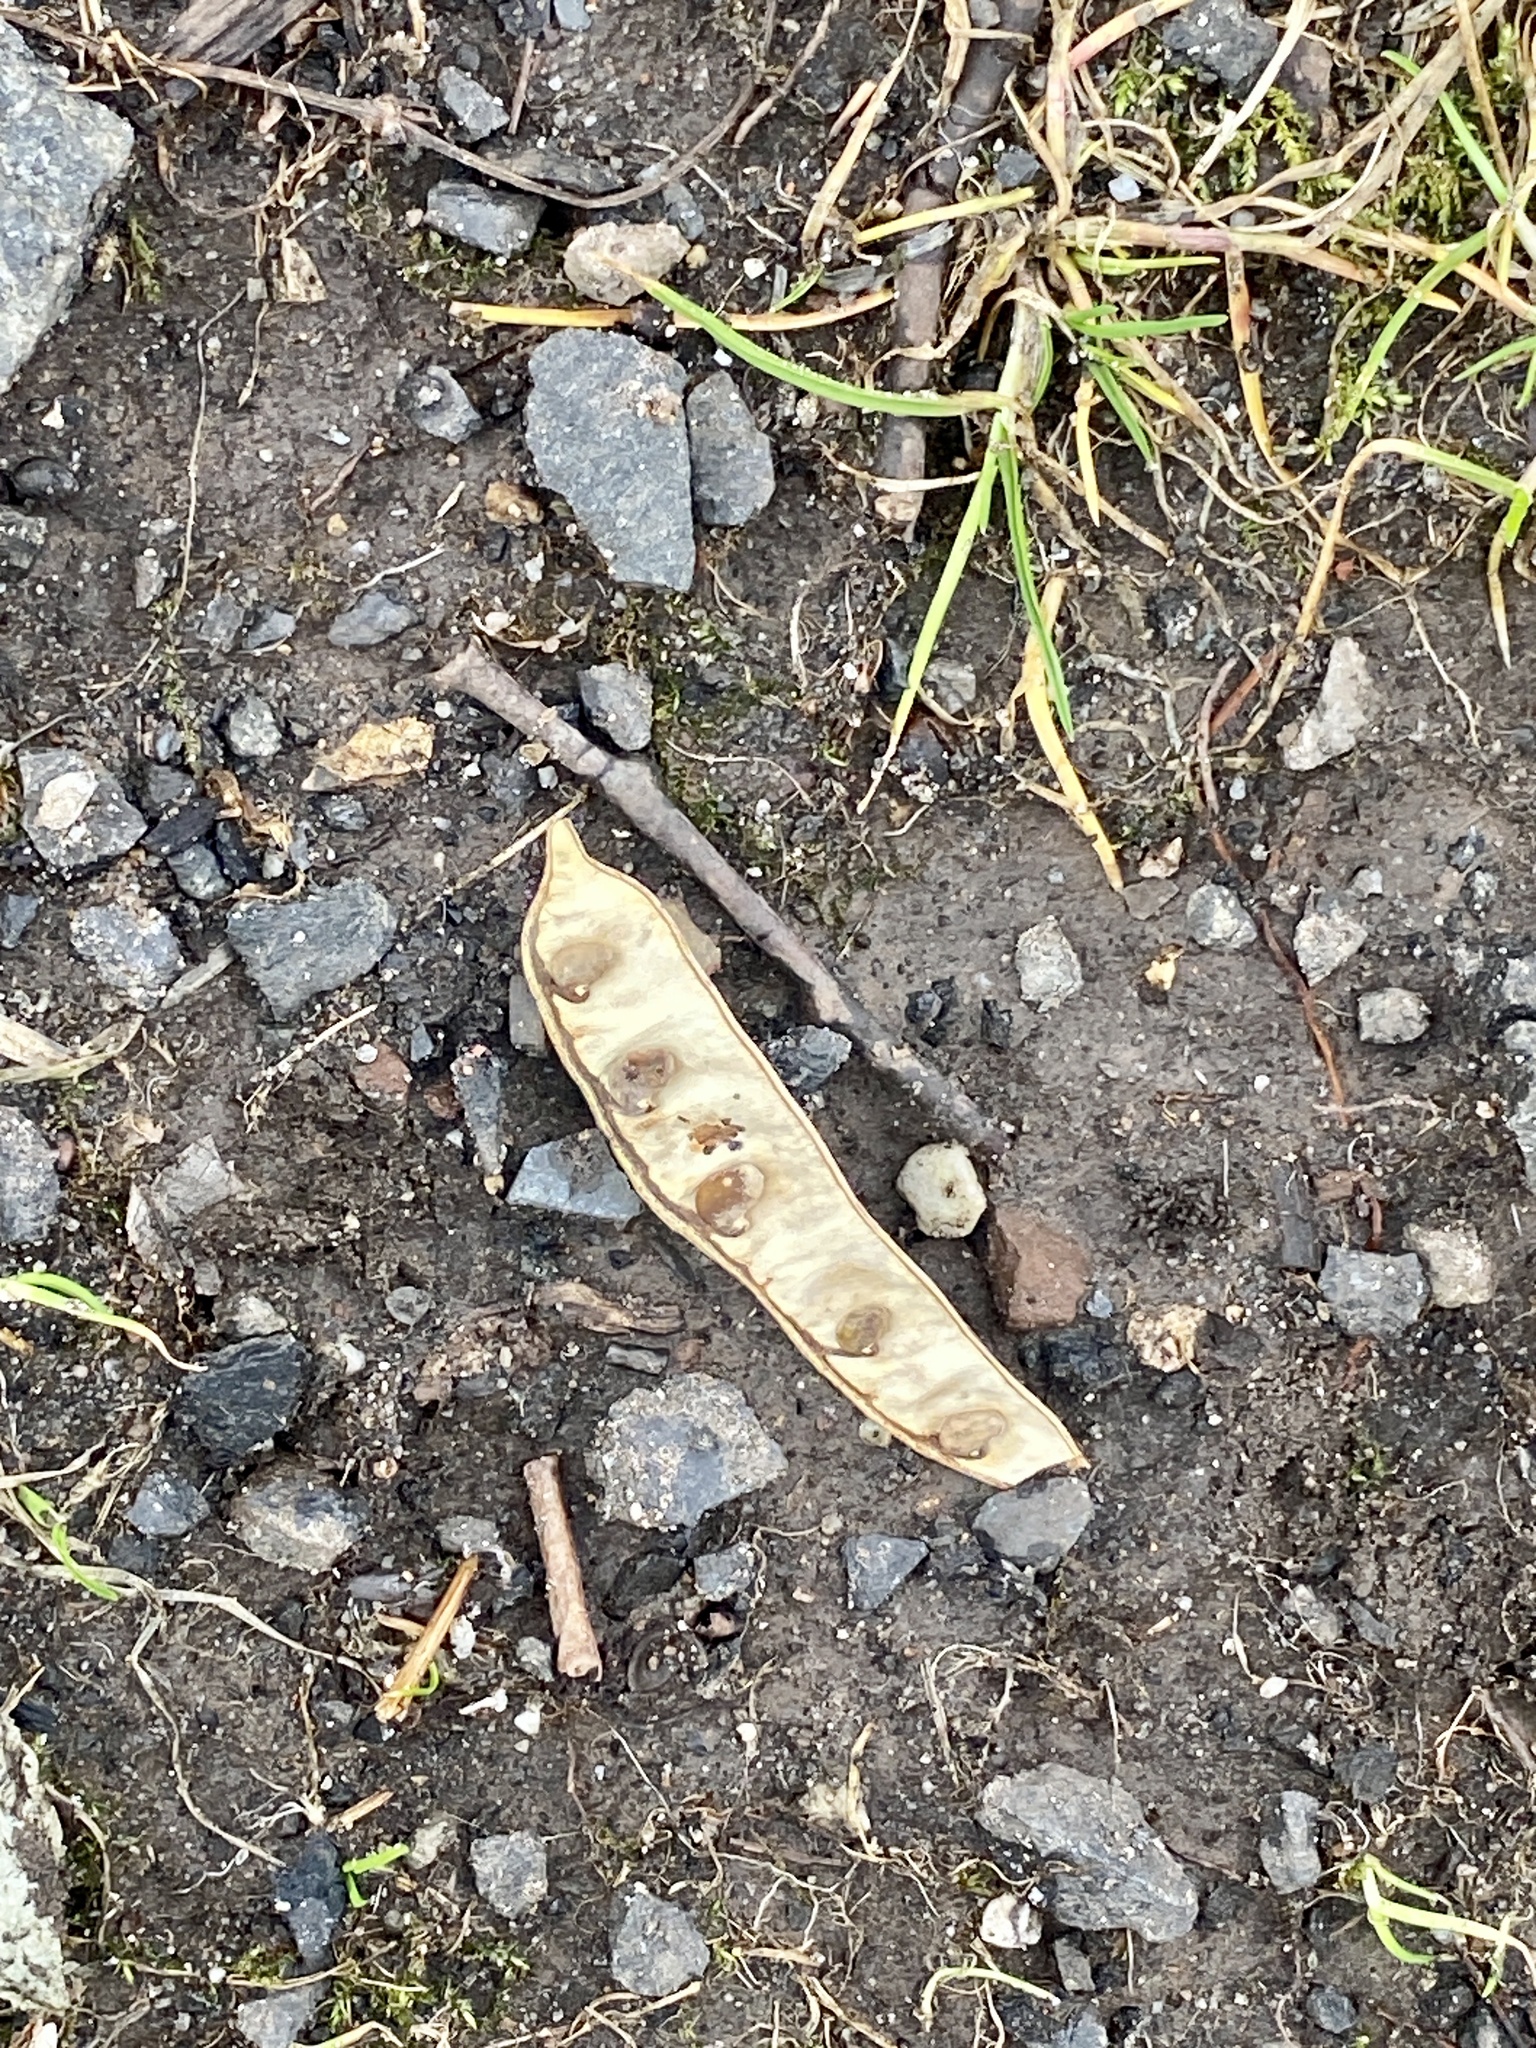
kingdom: Plantae
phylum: Tracheophyta
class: Magnoliopsida
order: Fabales
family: Fabaceae
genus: Robinia
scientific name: Robinia pseudoacacia
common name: Black locust
